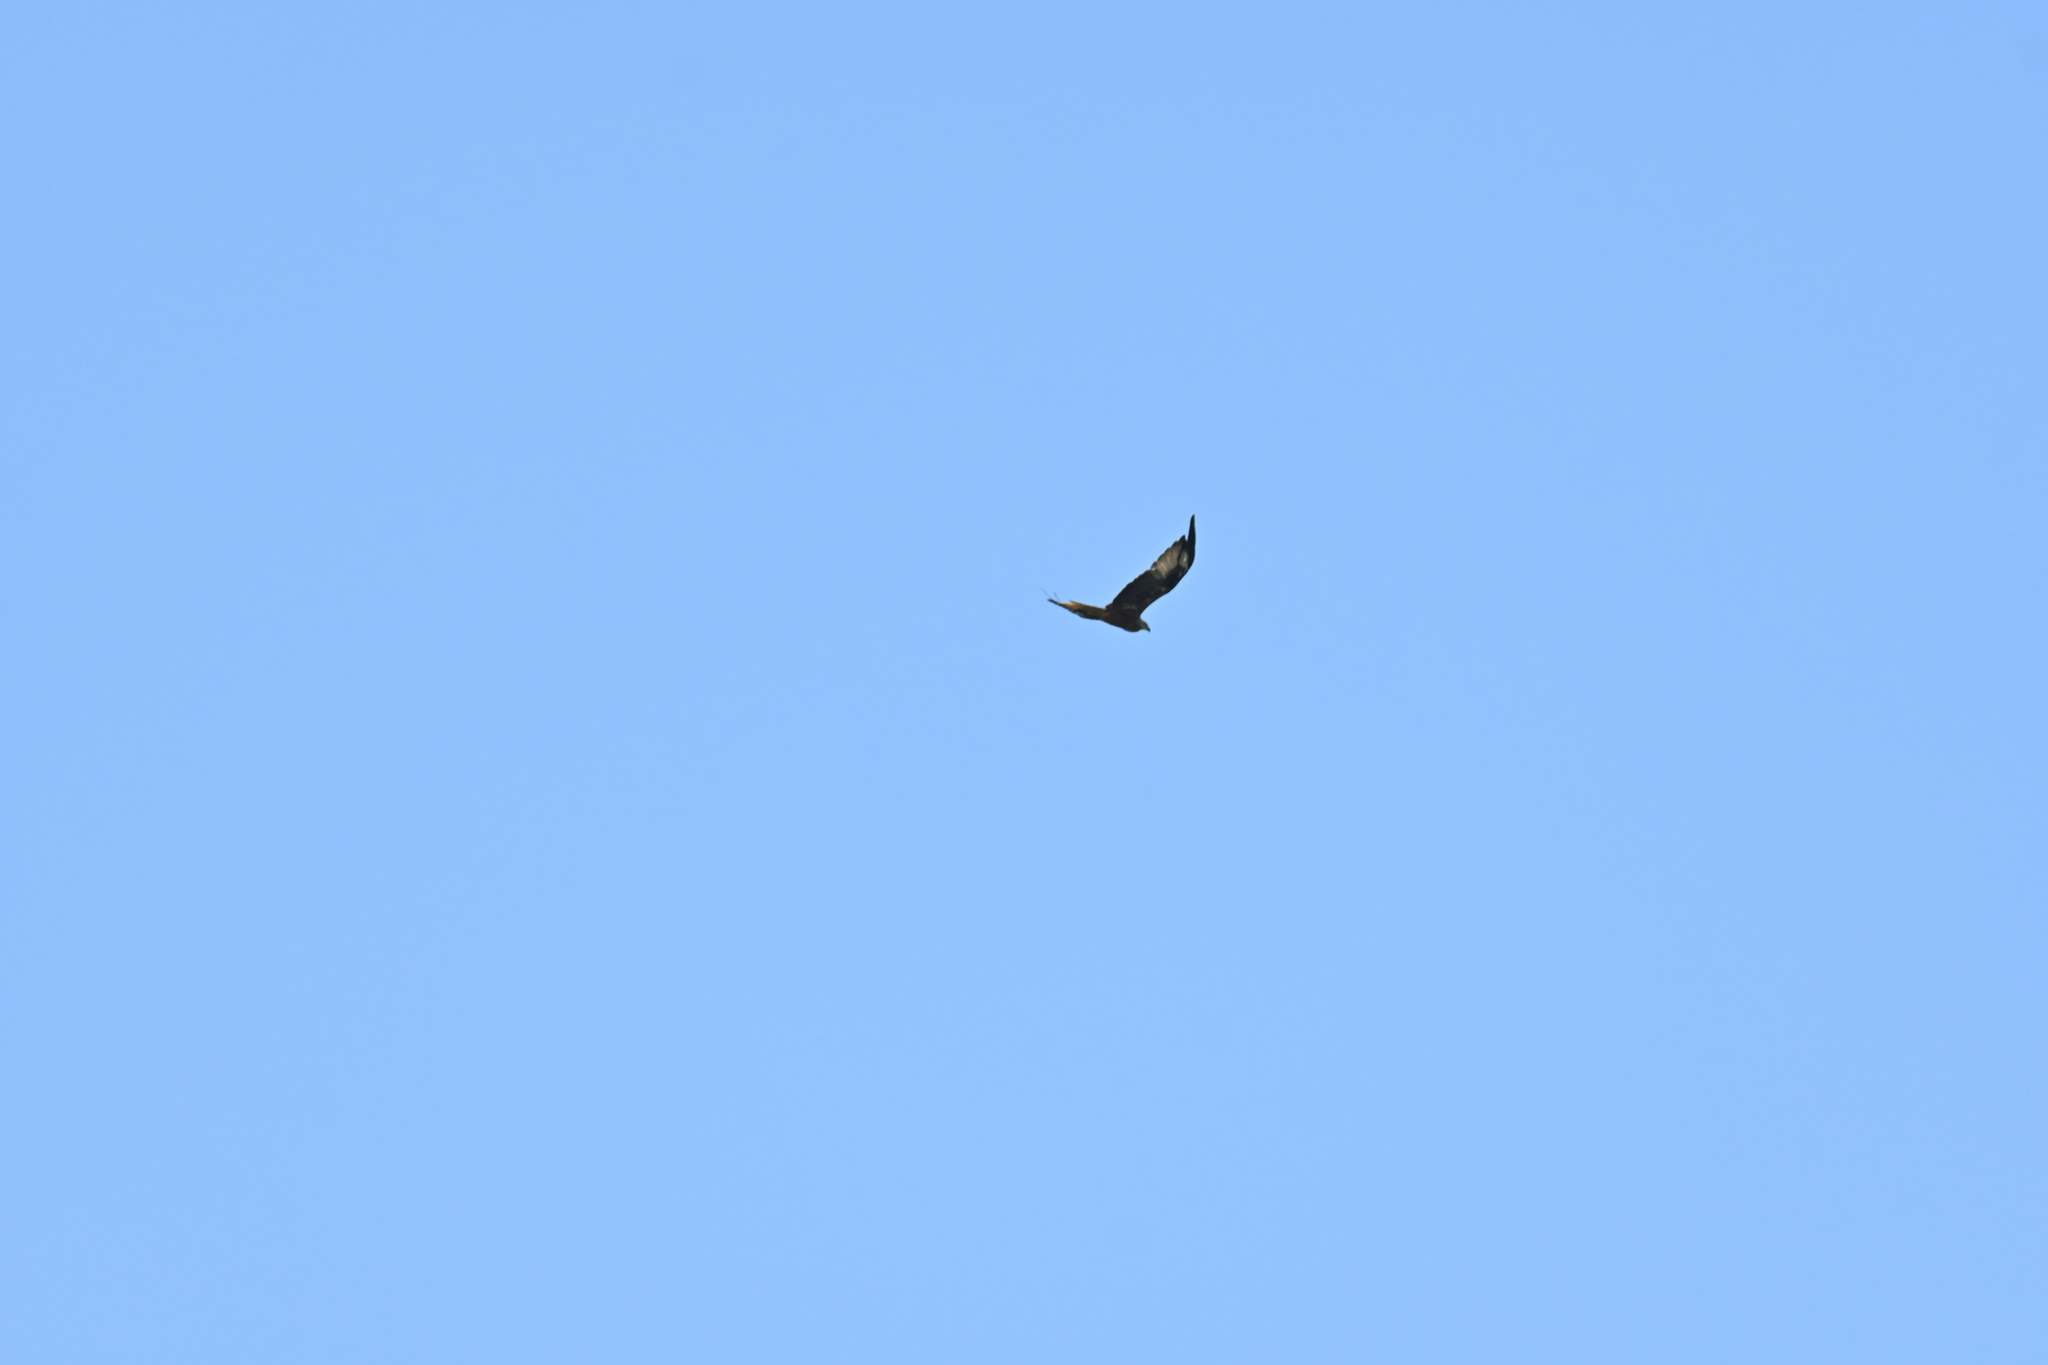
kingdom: Animalia
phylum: Chordata
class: Aves
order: Accipitriformes
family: Accipitridae
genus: Milvus
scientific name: Milvus milvus
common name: Red kite
